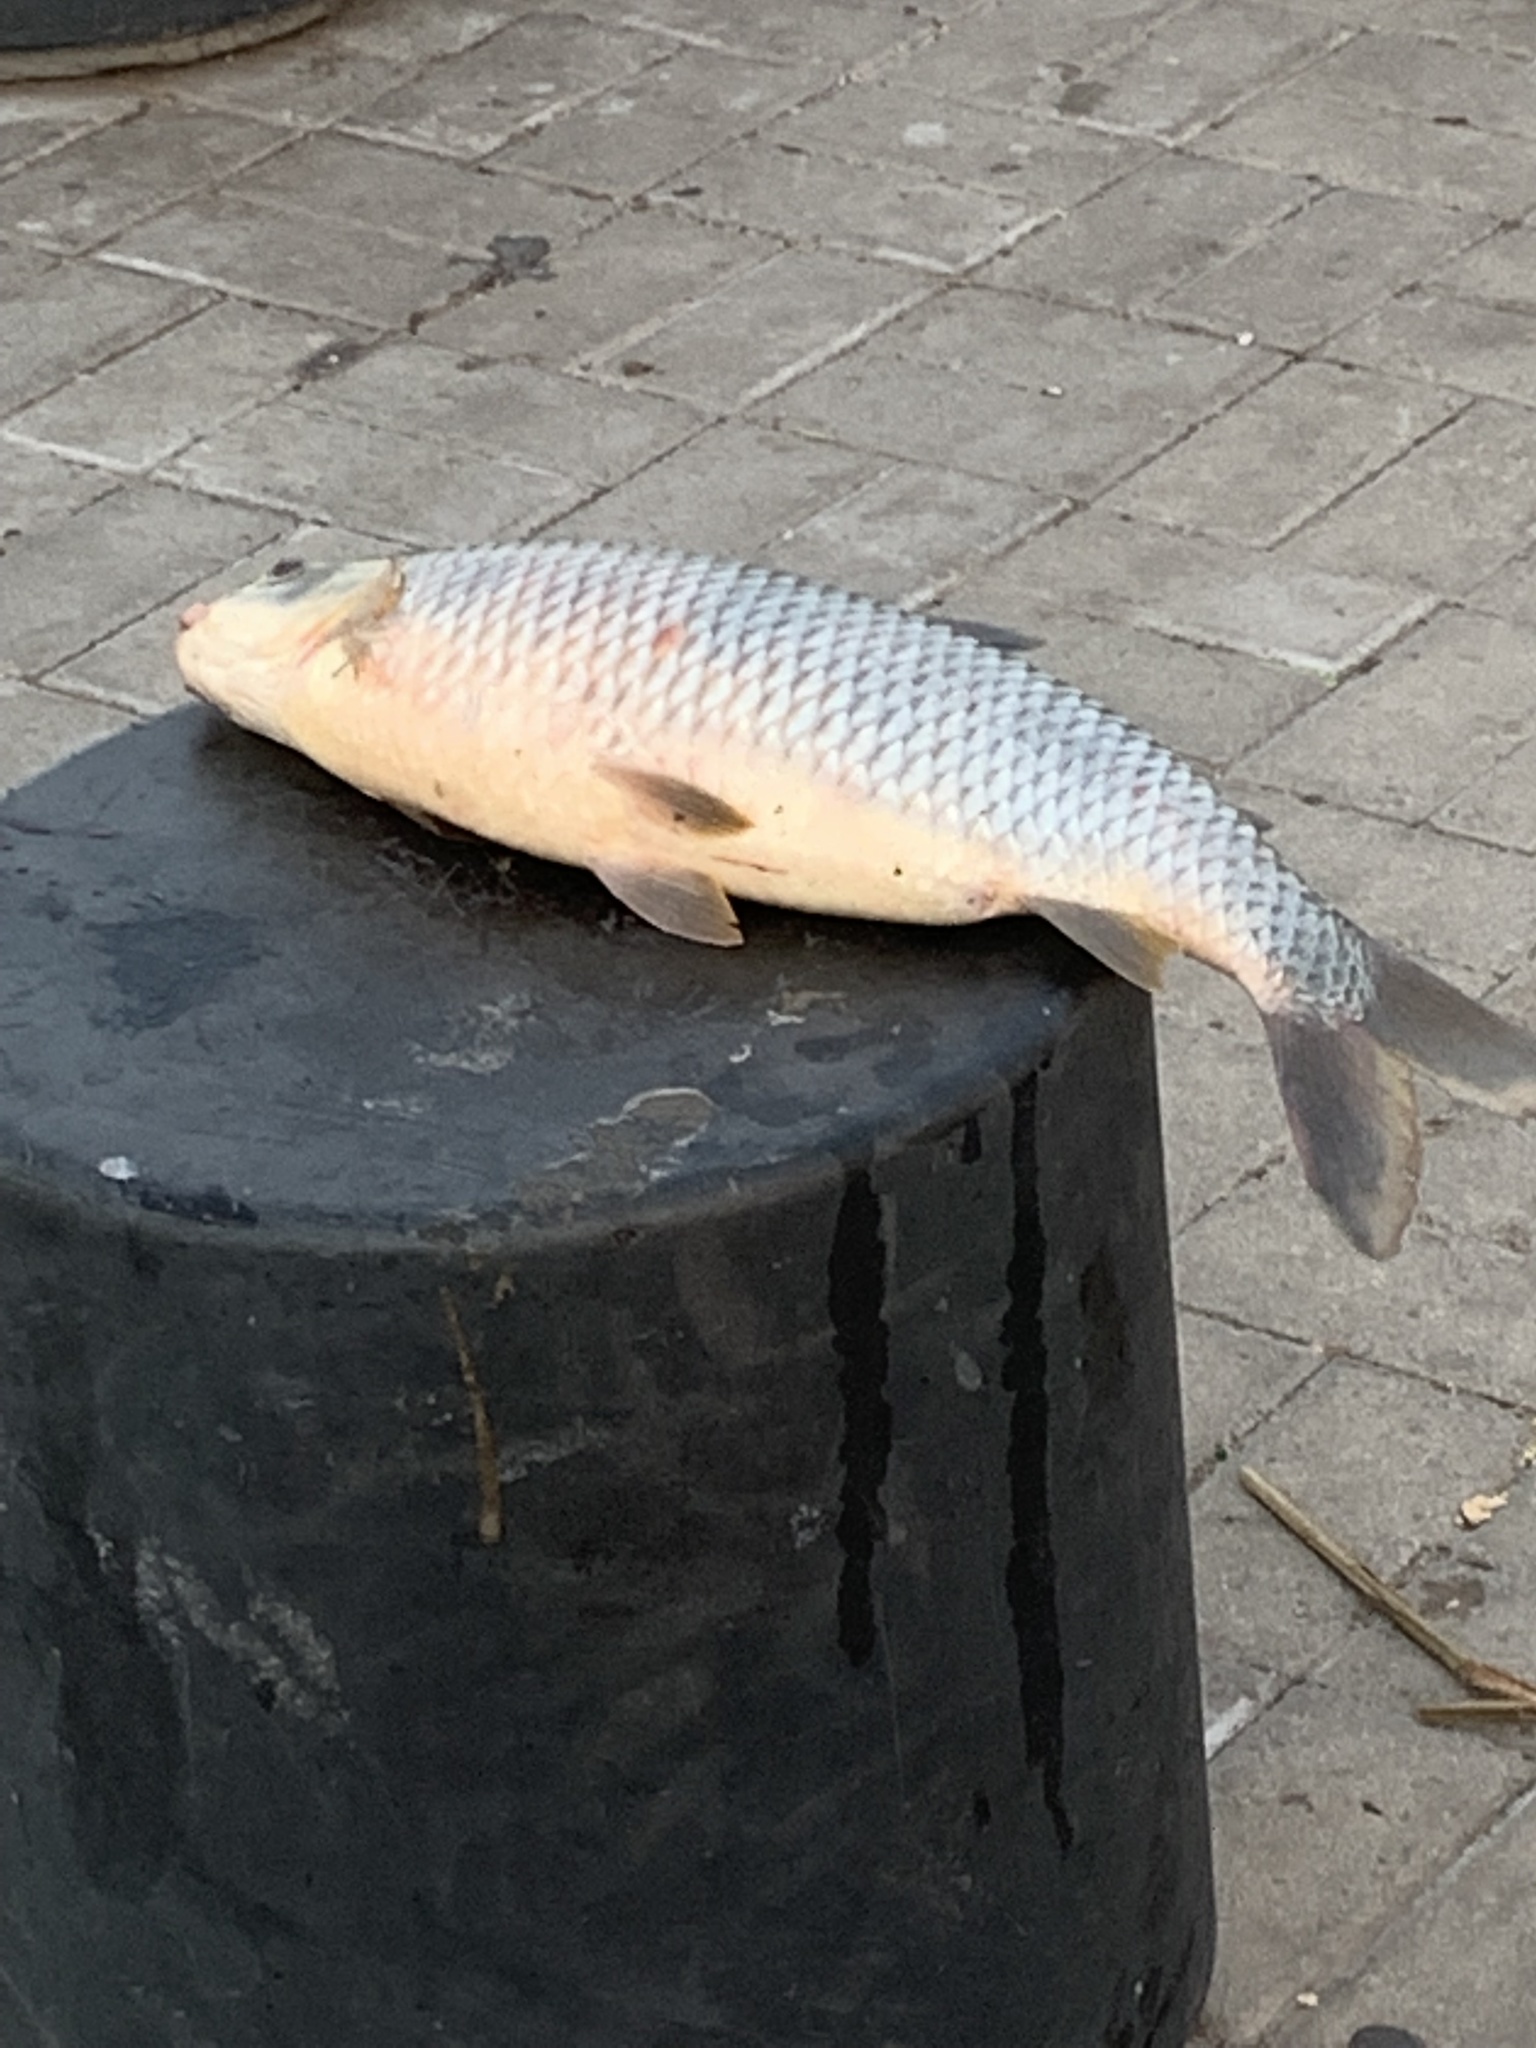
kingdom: Animalia
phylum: Chordata
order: Characiformes
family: Anostomidae
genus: Leporinus
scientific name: Leporinus obtusidens
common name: Characin
